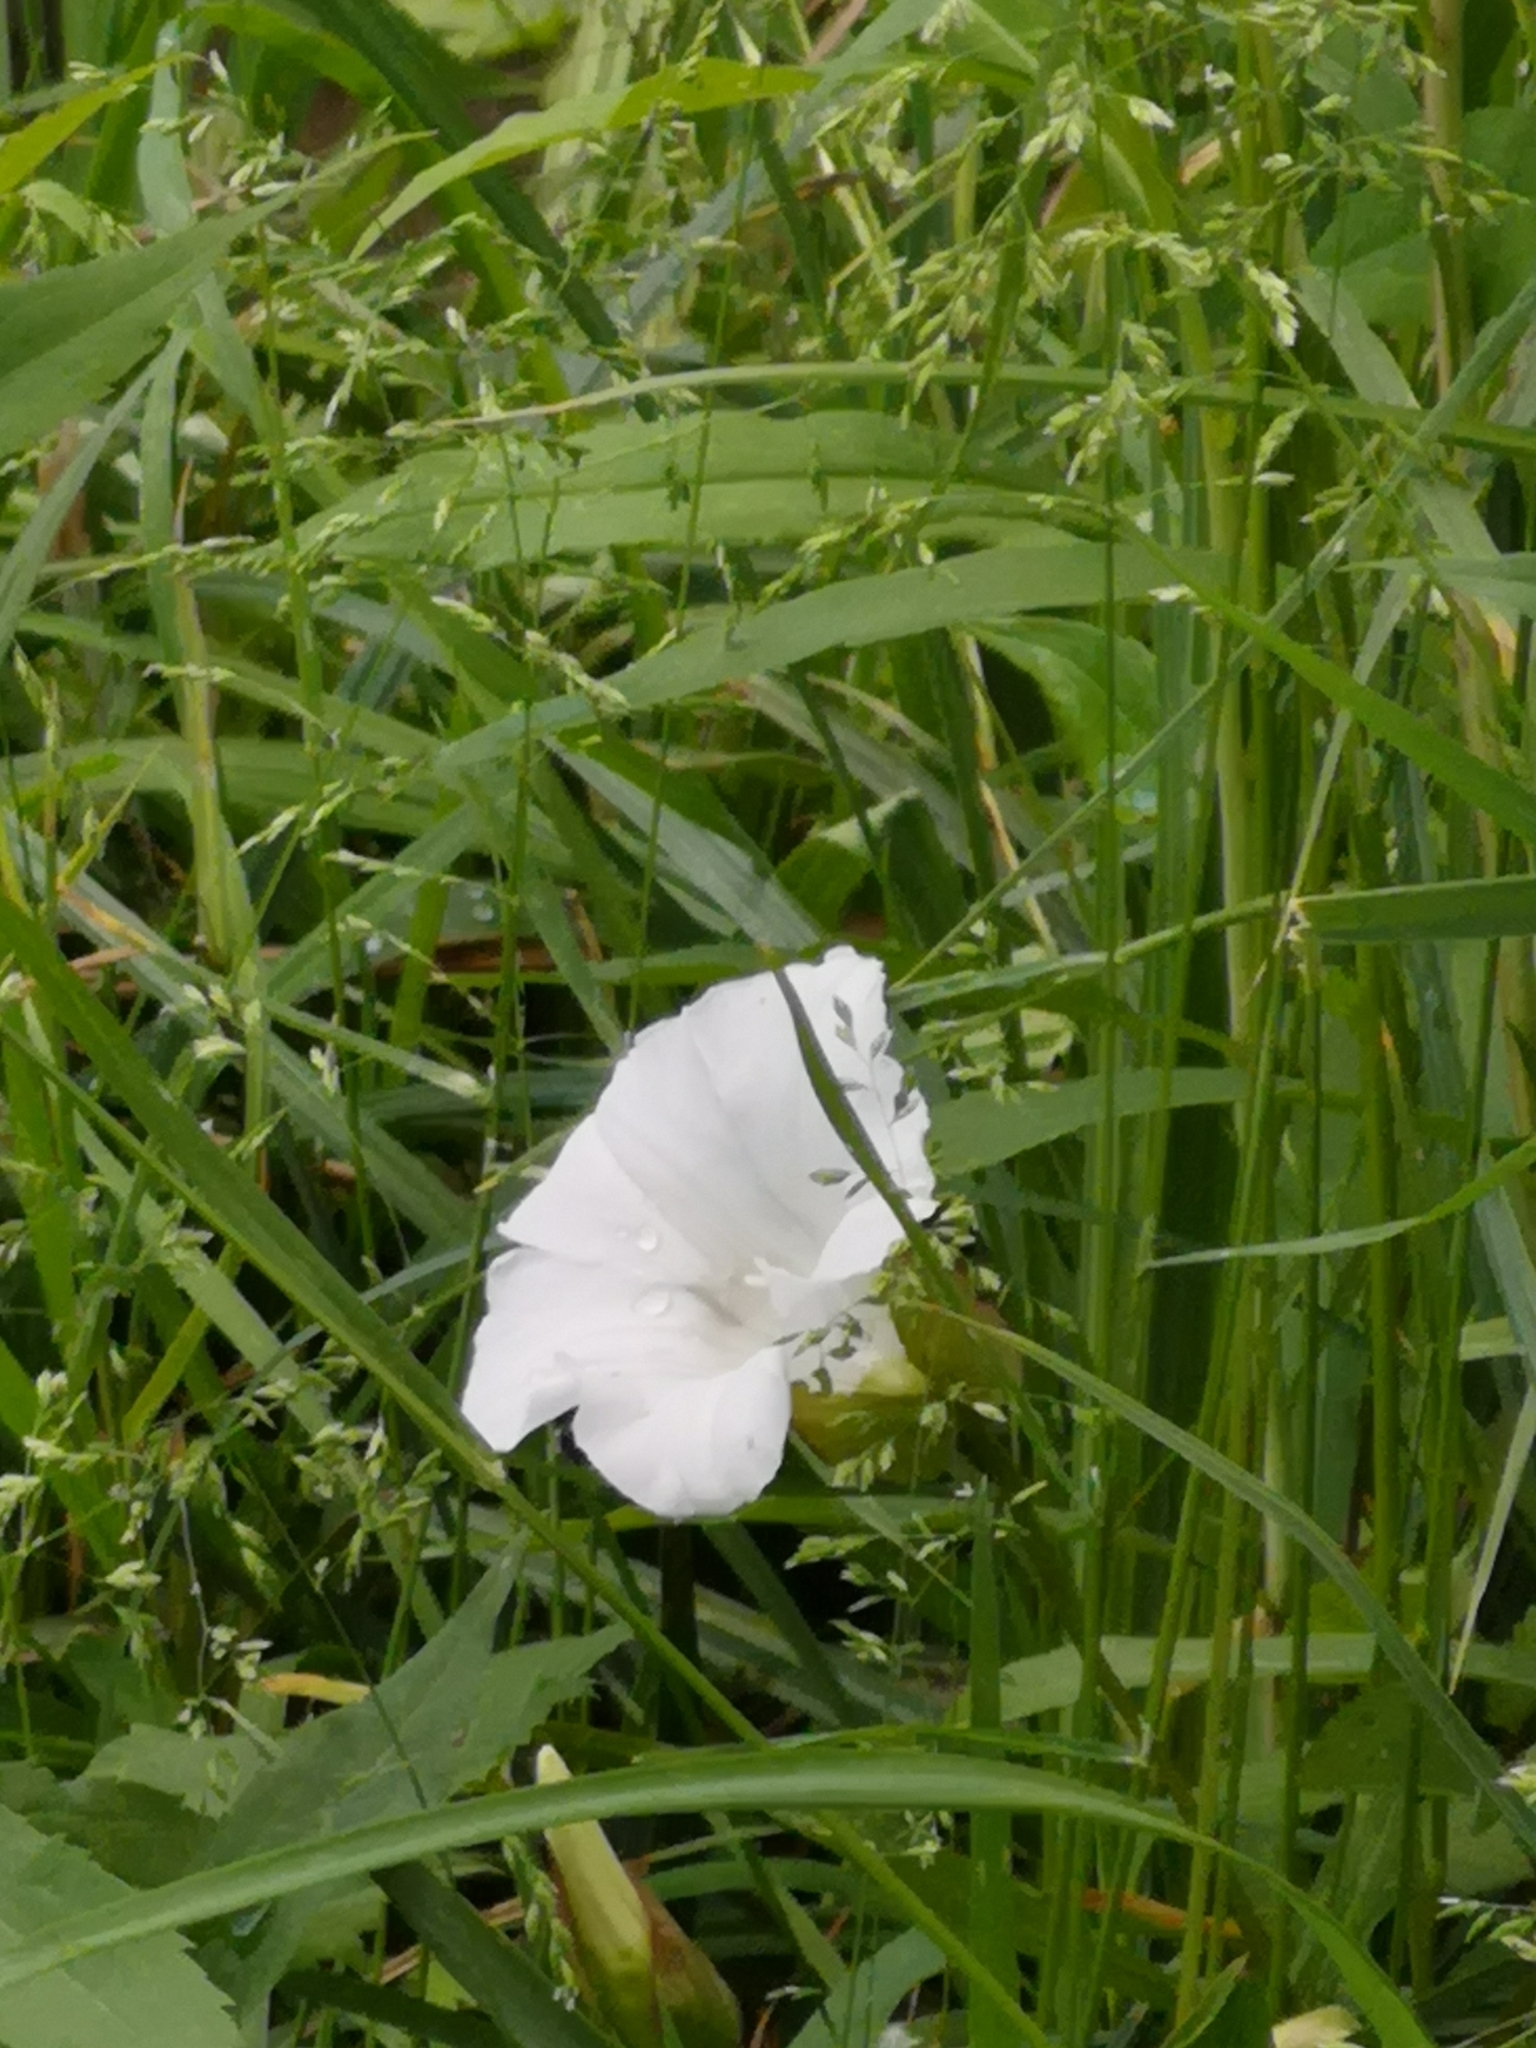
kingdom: Plantae
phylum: Tracheophyta
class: Magnoliopsida
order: Solanales
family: Convolvulaceae
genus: Calystegia
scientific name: Calystegia sepium
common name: Hedge bindweed
